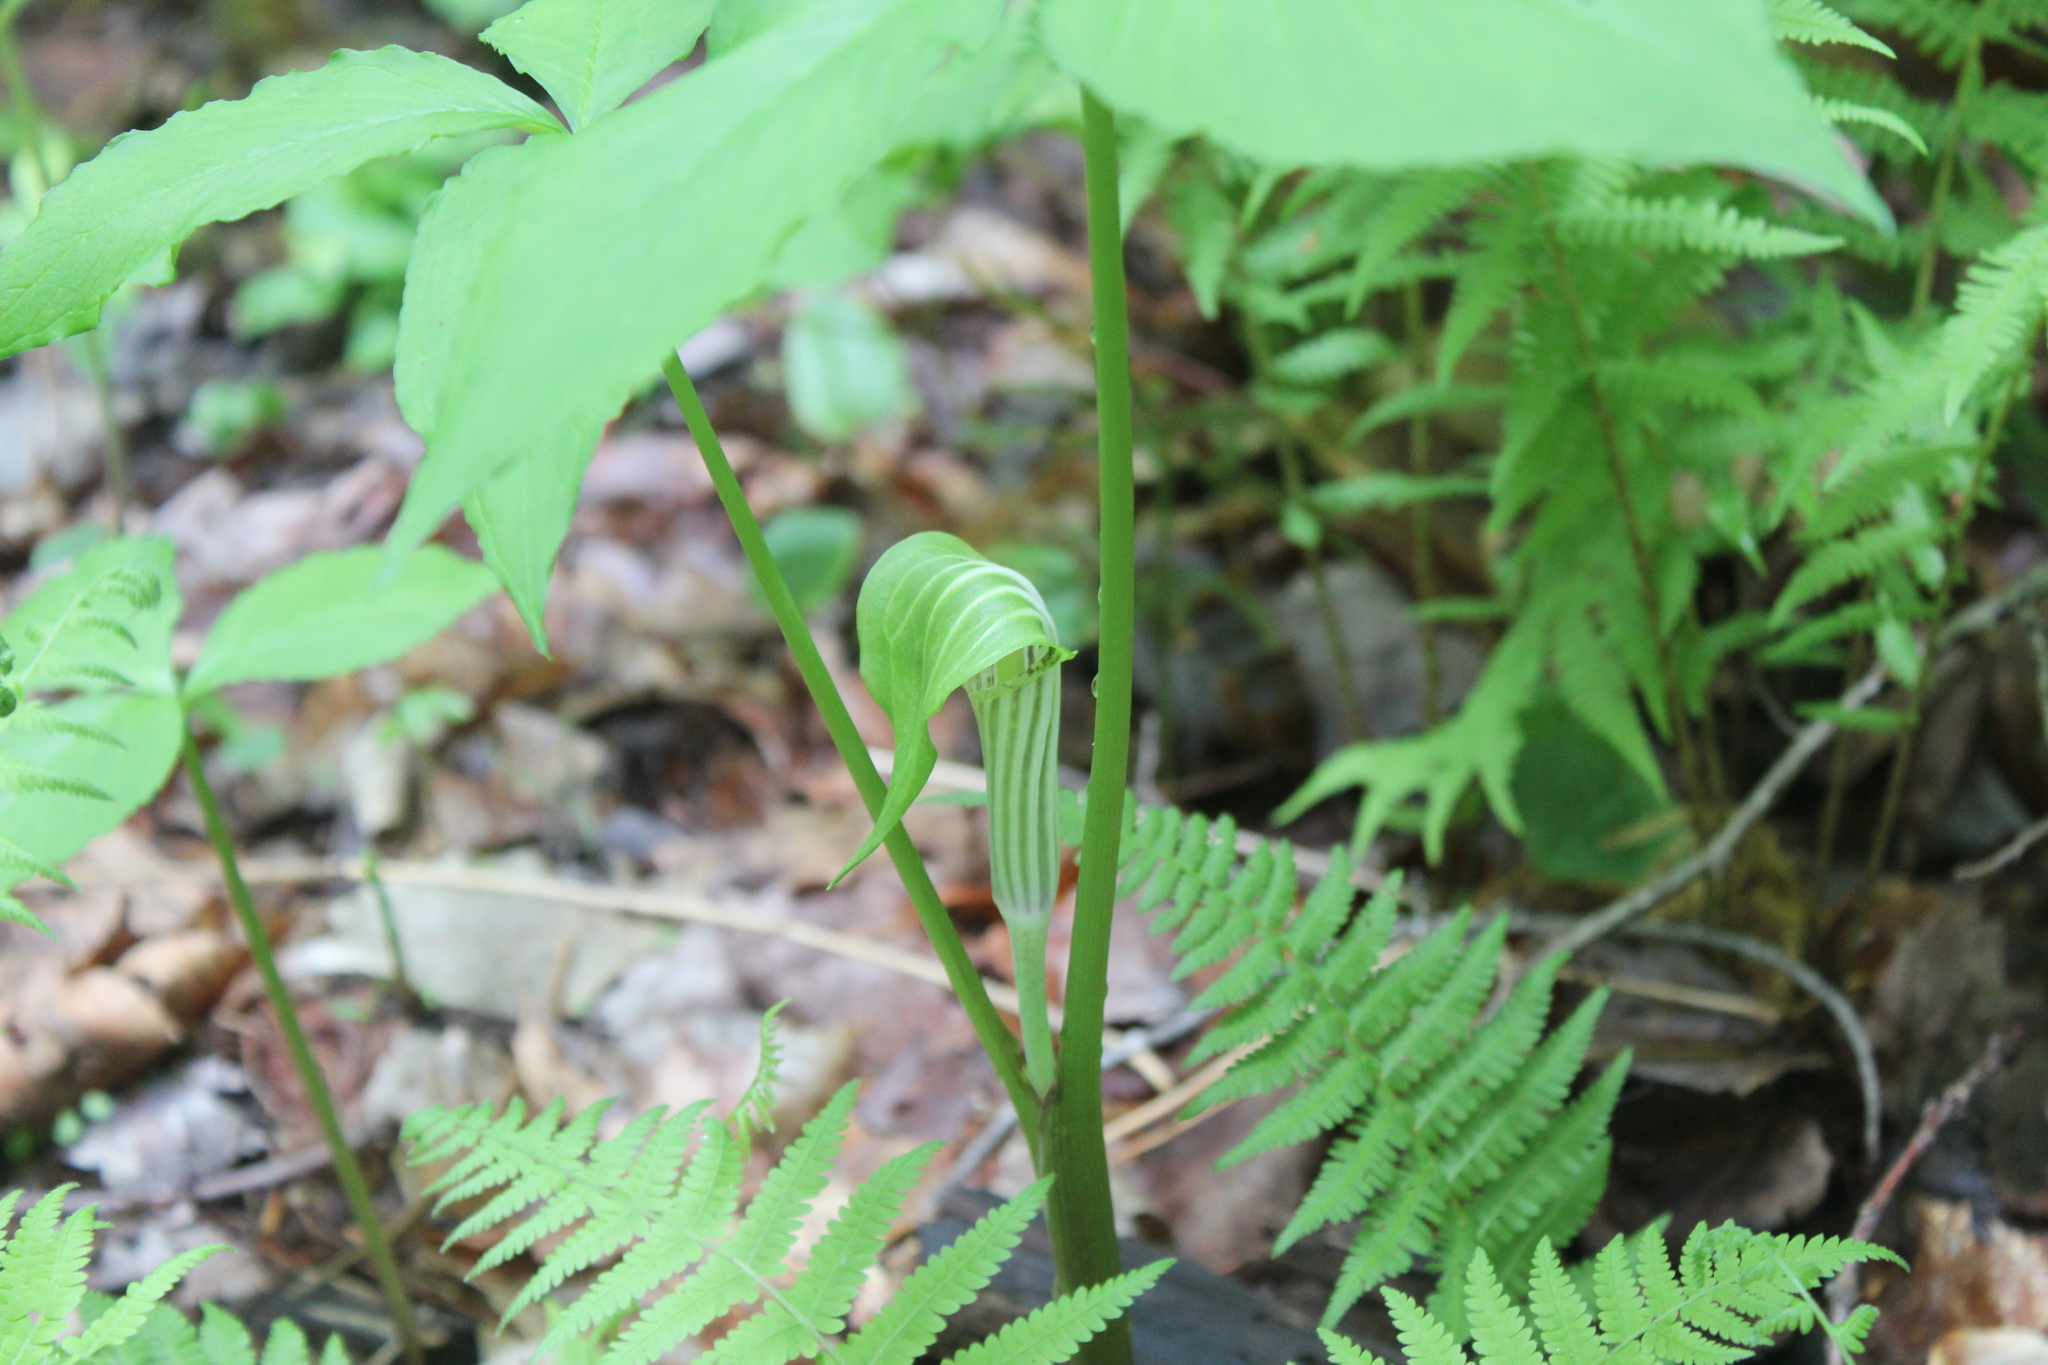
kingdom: Plantae
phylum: Tracheophyta
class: Liliopsida
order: Alismatales
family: Araceae
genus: Arisaema
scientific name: Arisaema stewardsonii
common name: Swamp jack-in-the-pulpit
